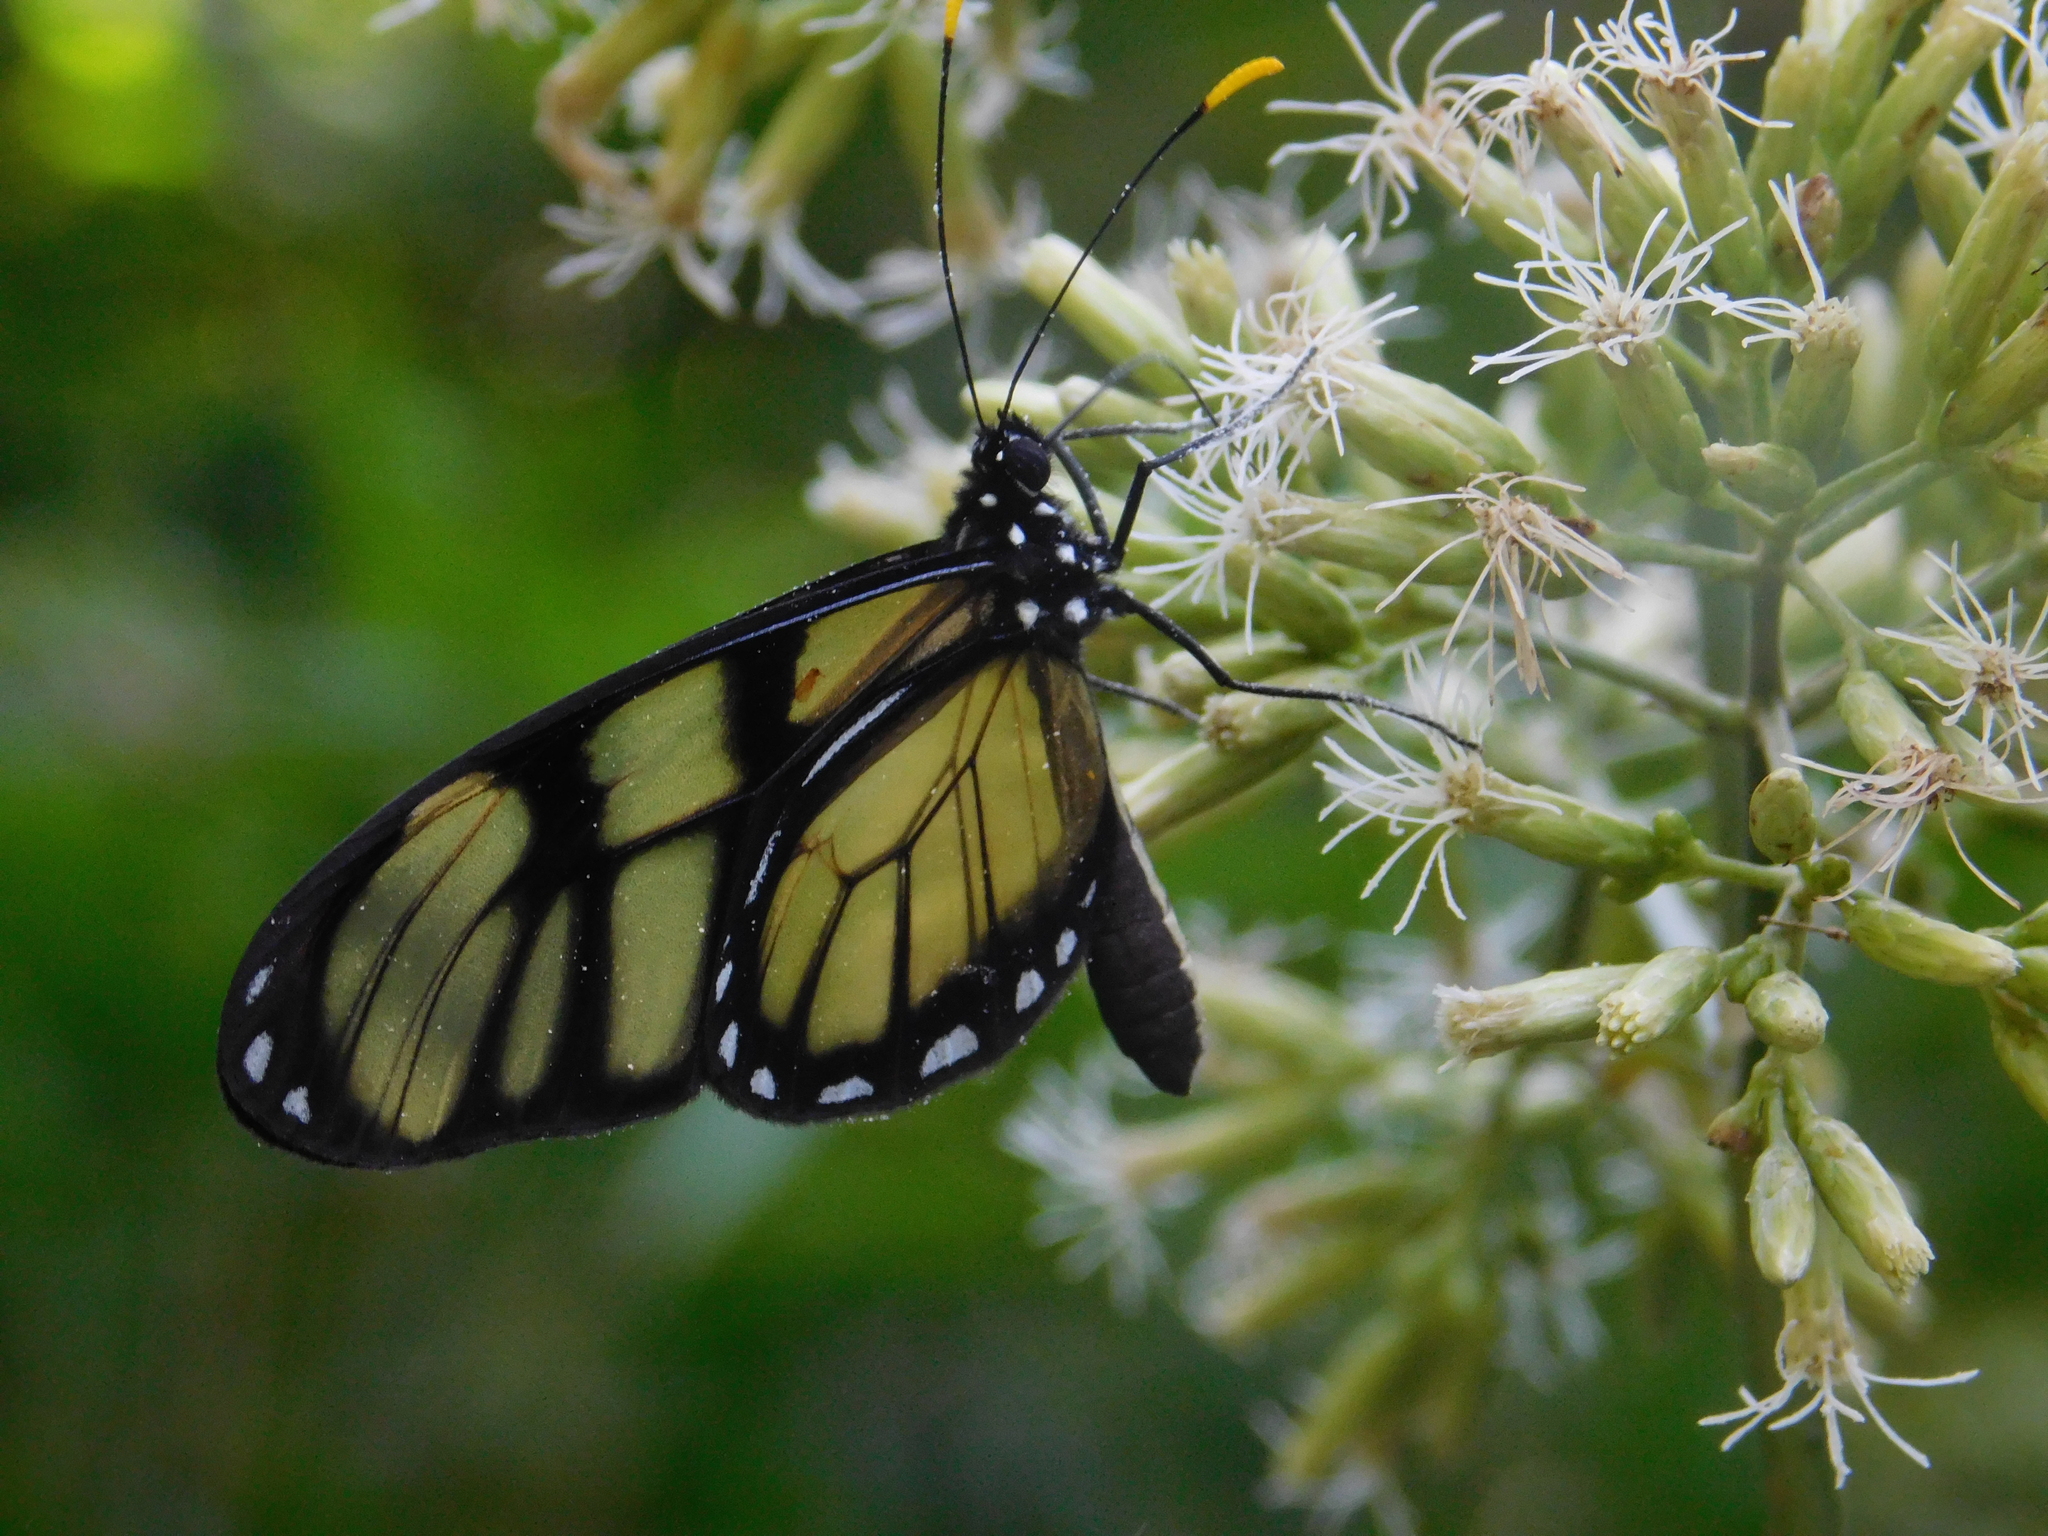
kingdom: Animalia
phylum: Arthropoda
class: Insecta
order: Lepidoptera
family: Nymphalidae
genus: Dircenna
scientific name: Dircenna dero
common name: Dero clearwing
